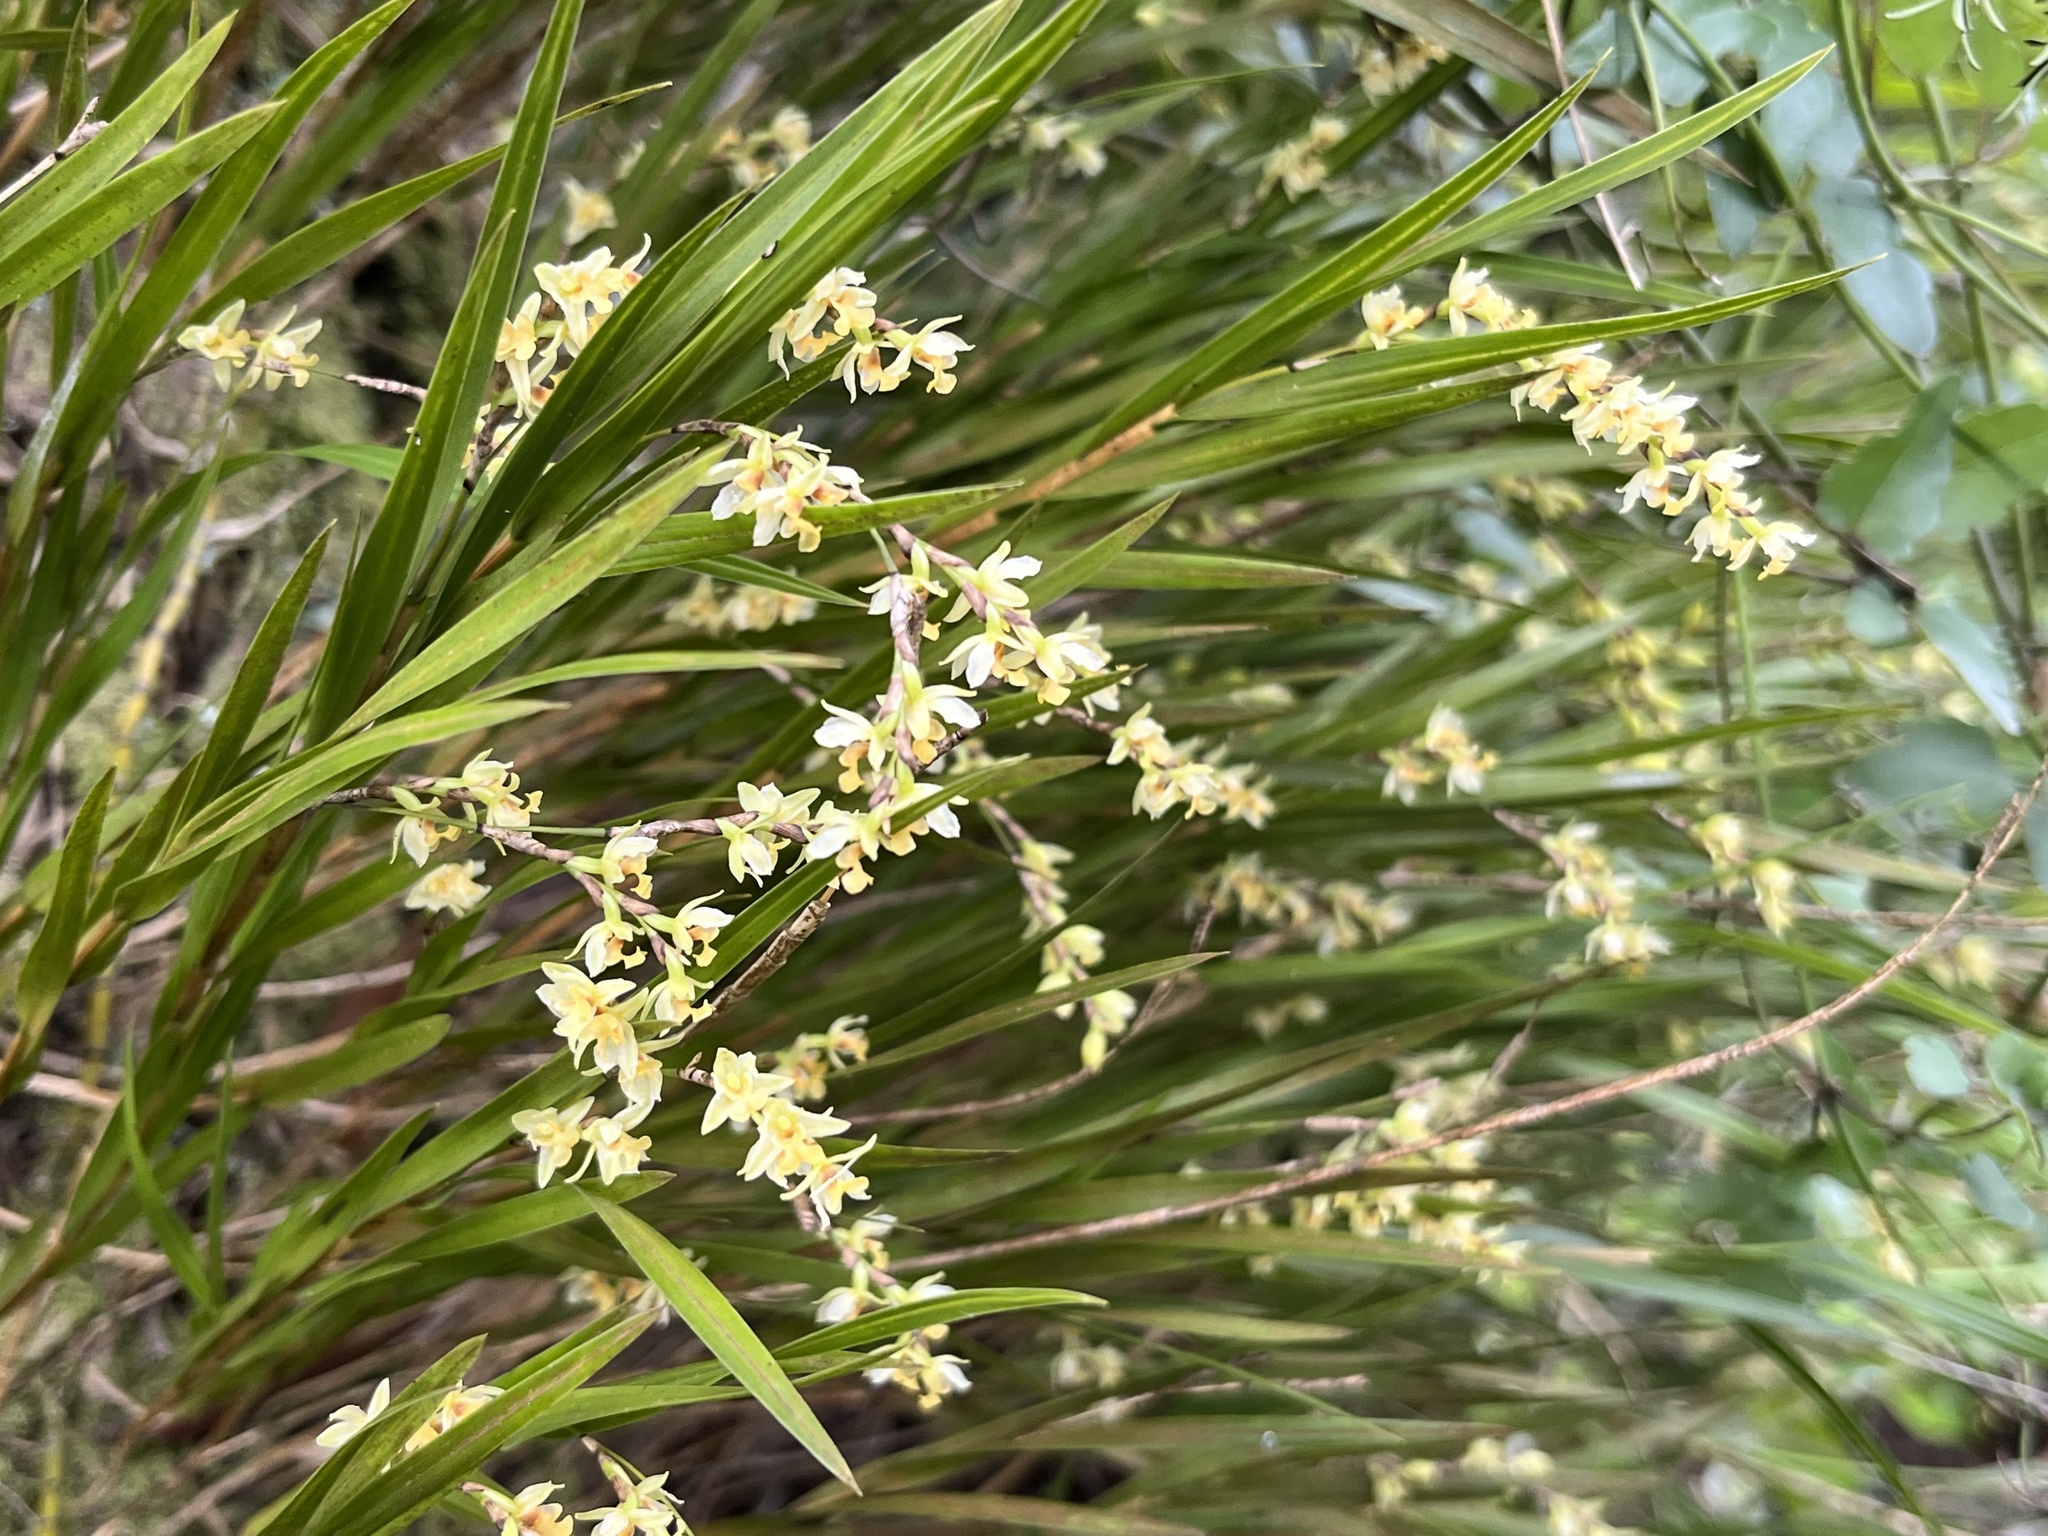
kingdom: Plantae
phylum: Tracheophyta
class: Liliopsida
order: Asparagales
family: Orchidaceae
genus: Earina
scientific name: Earina mucronata
